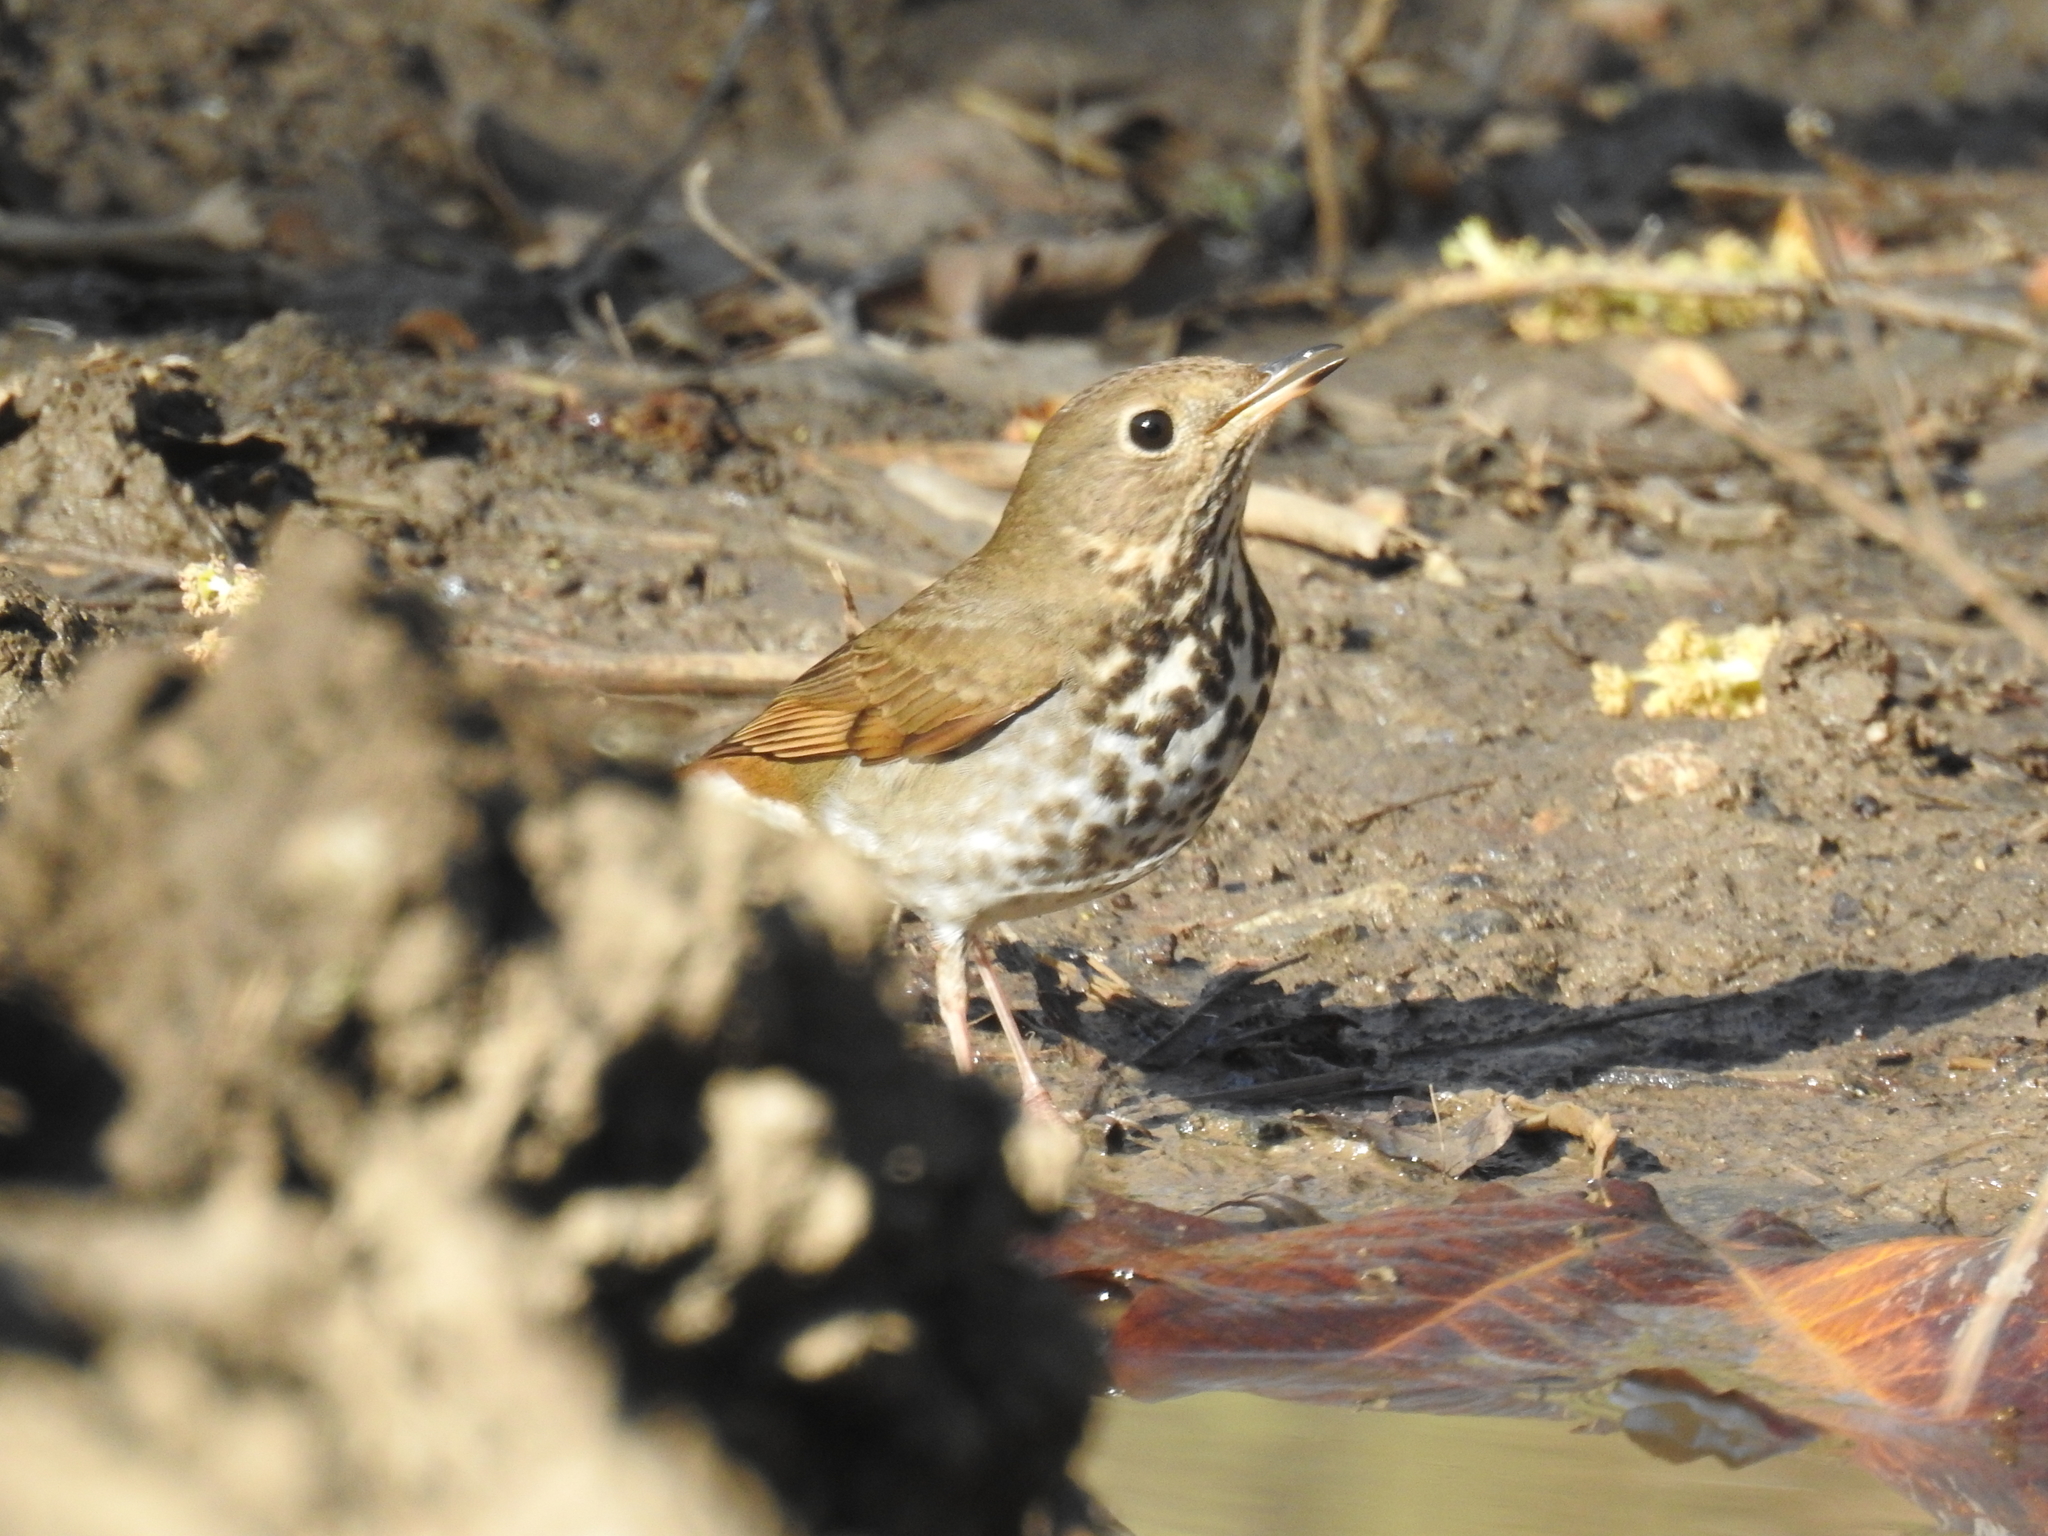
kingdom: Animalia
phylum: Chordata
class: Aves
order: Passeriformes
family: Turdidae
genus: Catharus
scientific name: Catharus guttatus
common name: Hermit thrush
